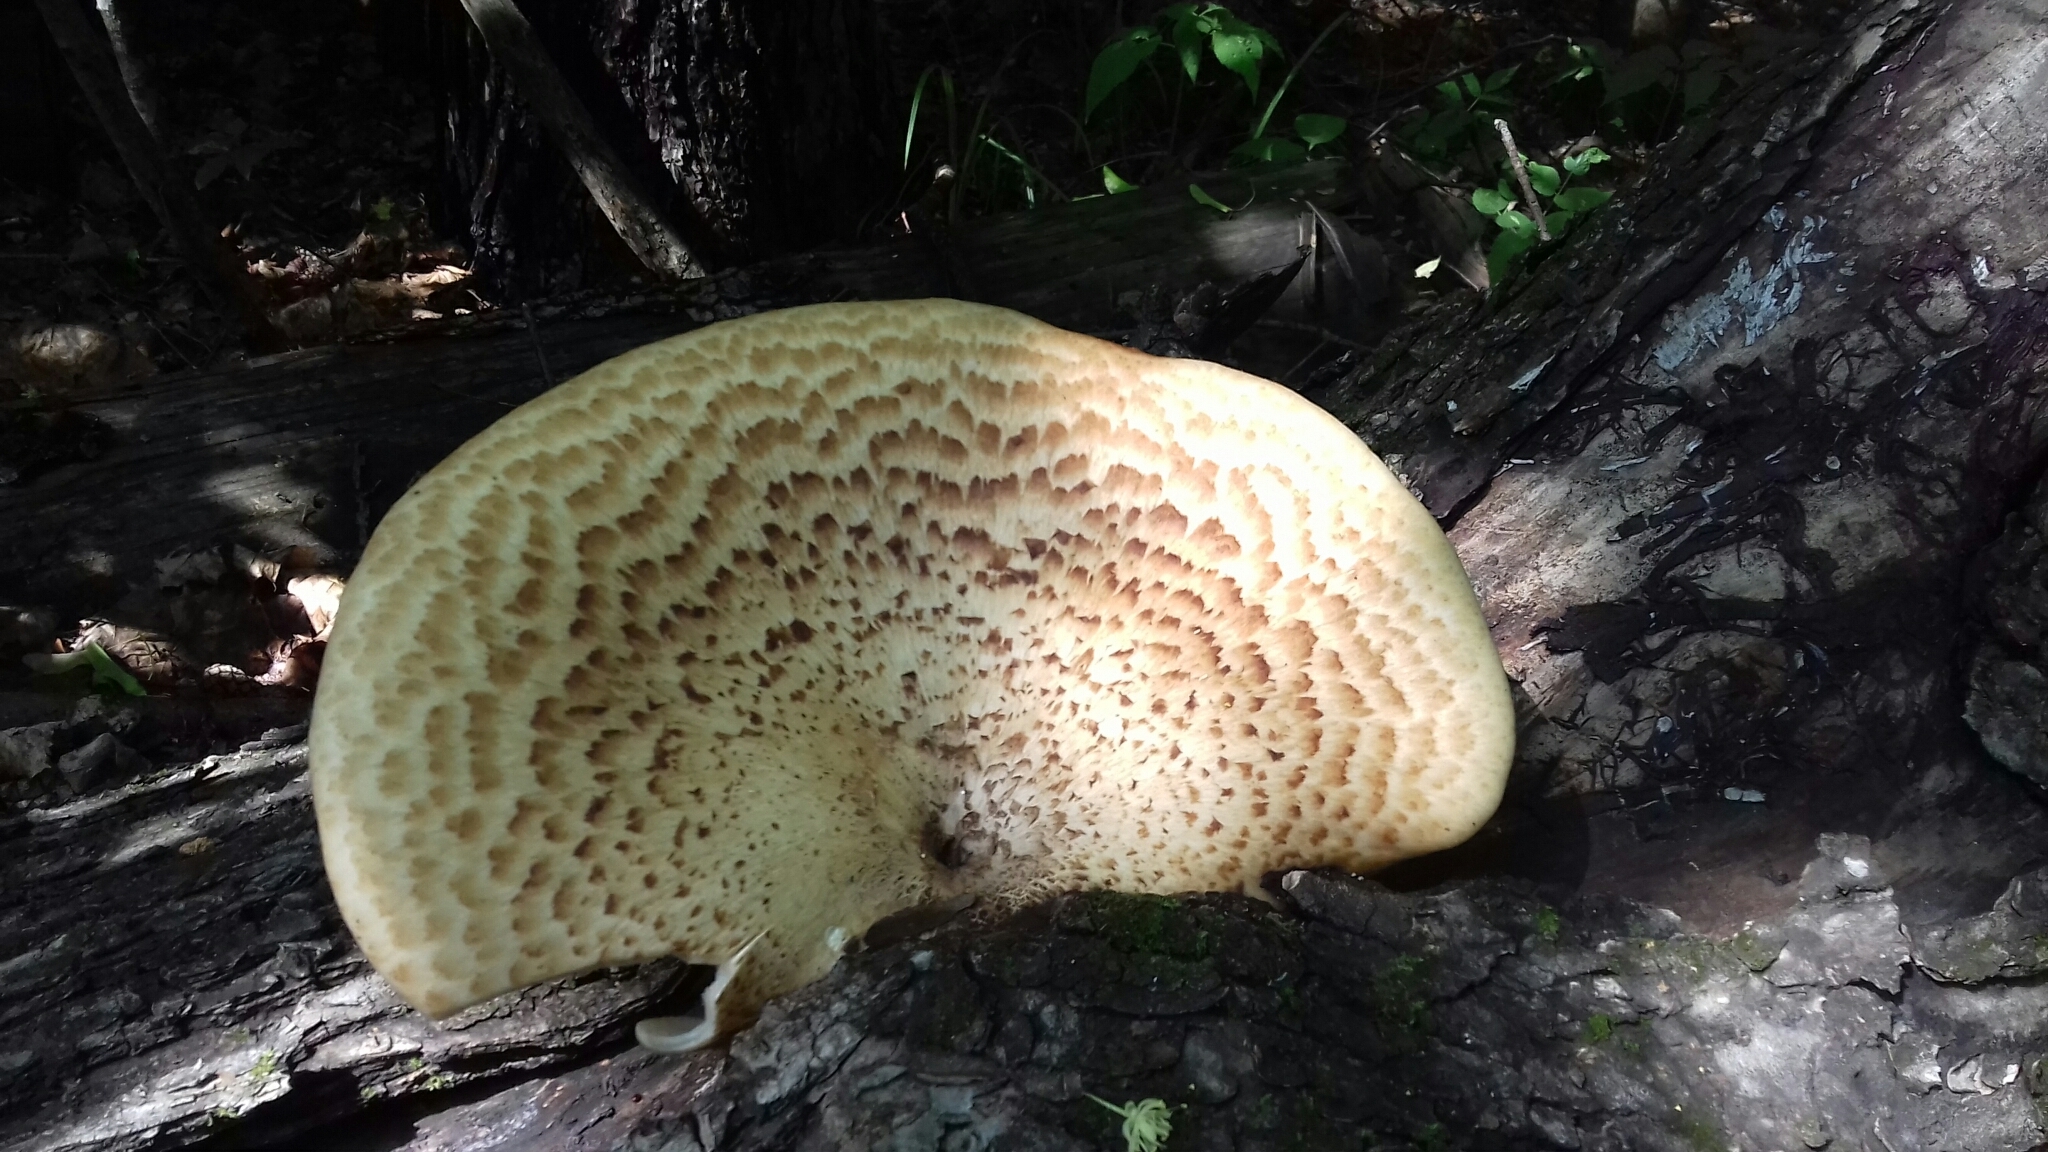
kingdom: Fungi
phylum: Basidiomycota
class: Agaricomycetes
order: Polyporales
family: Polyporaceae
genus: Cerioporus
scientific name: Cerioporus squamosus
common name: Dryad's saddle
